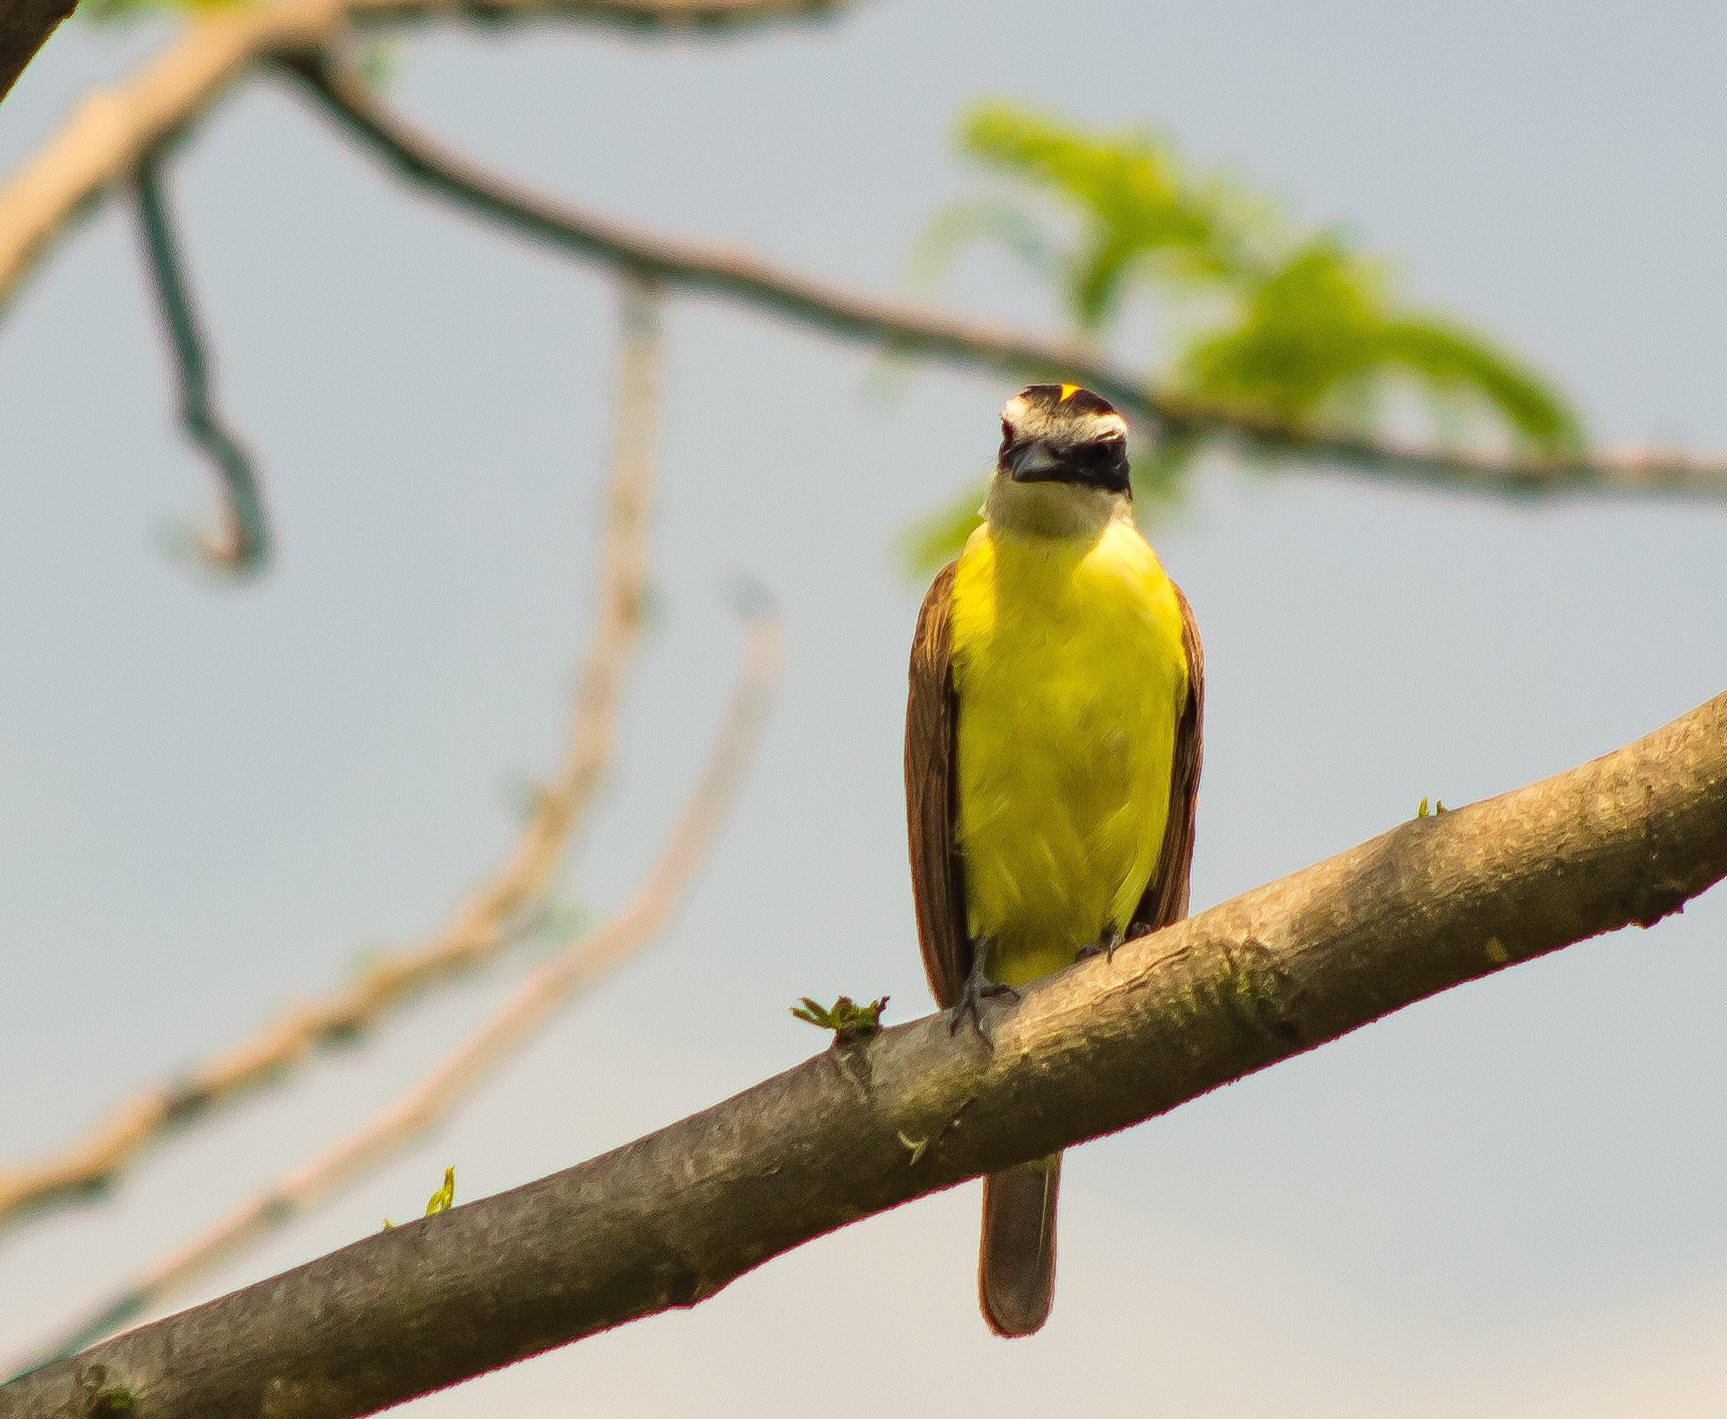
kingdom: Animalia
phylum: Chordata
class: Aves
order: Passeriformes
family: Tyrannidae
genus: Pitangus
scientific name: Pitangus sulphuratus
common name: Great kiskadee
